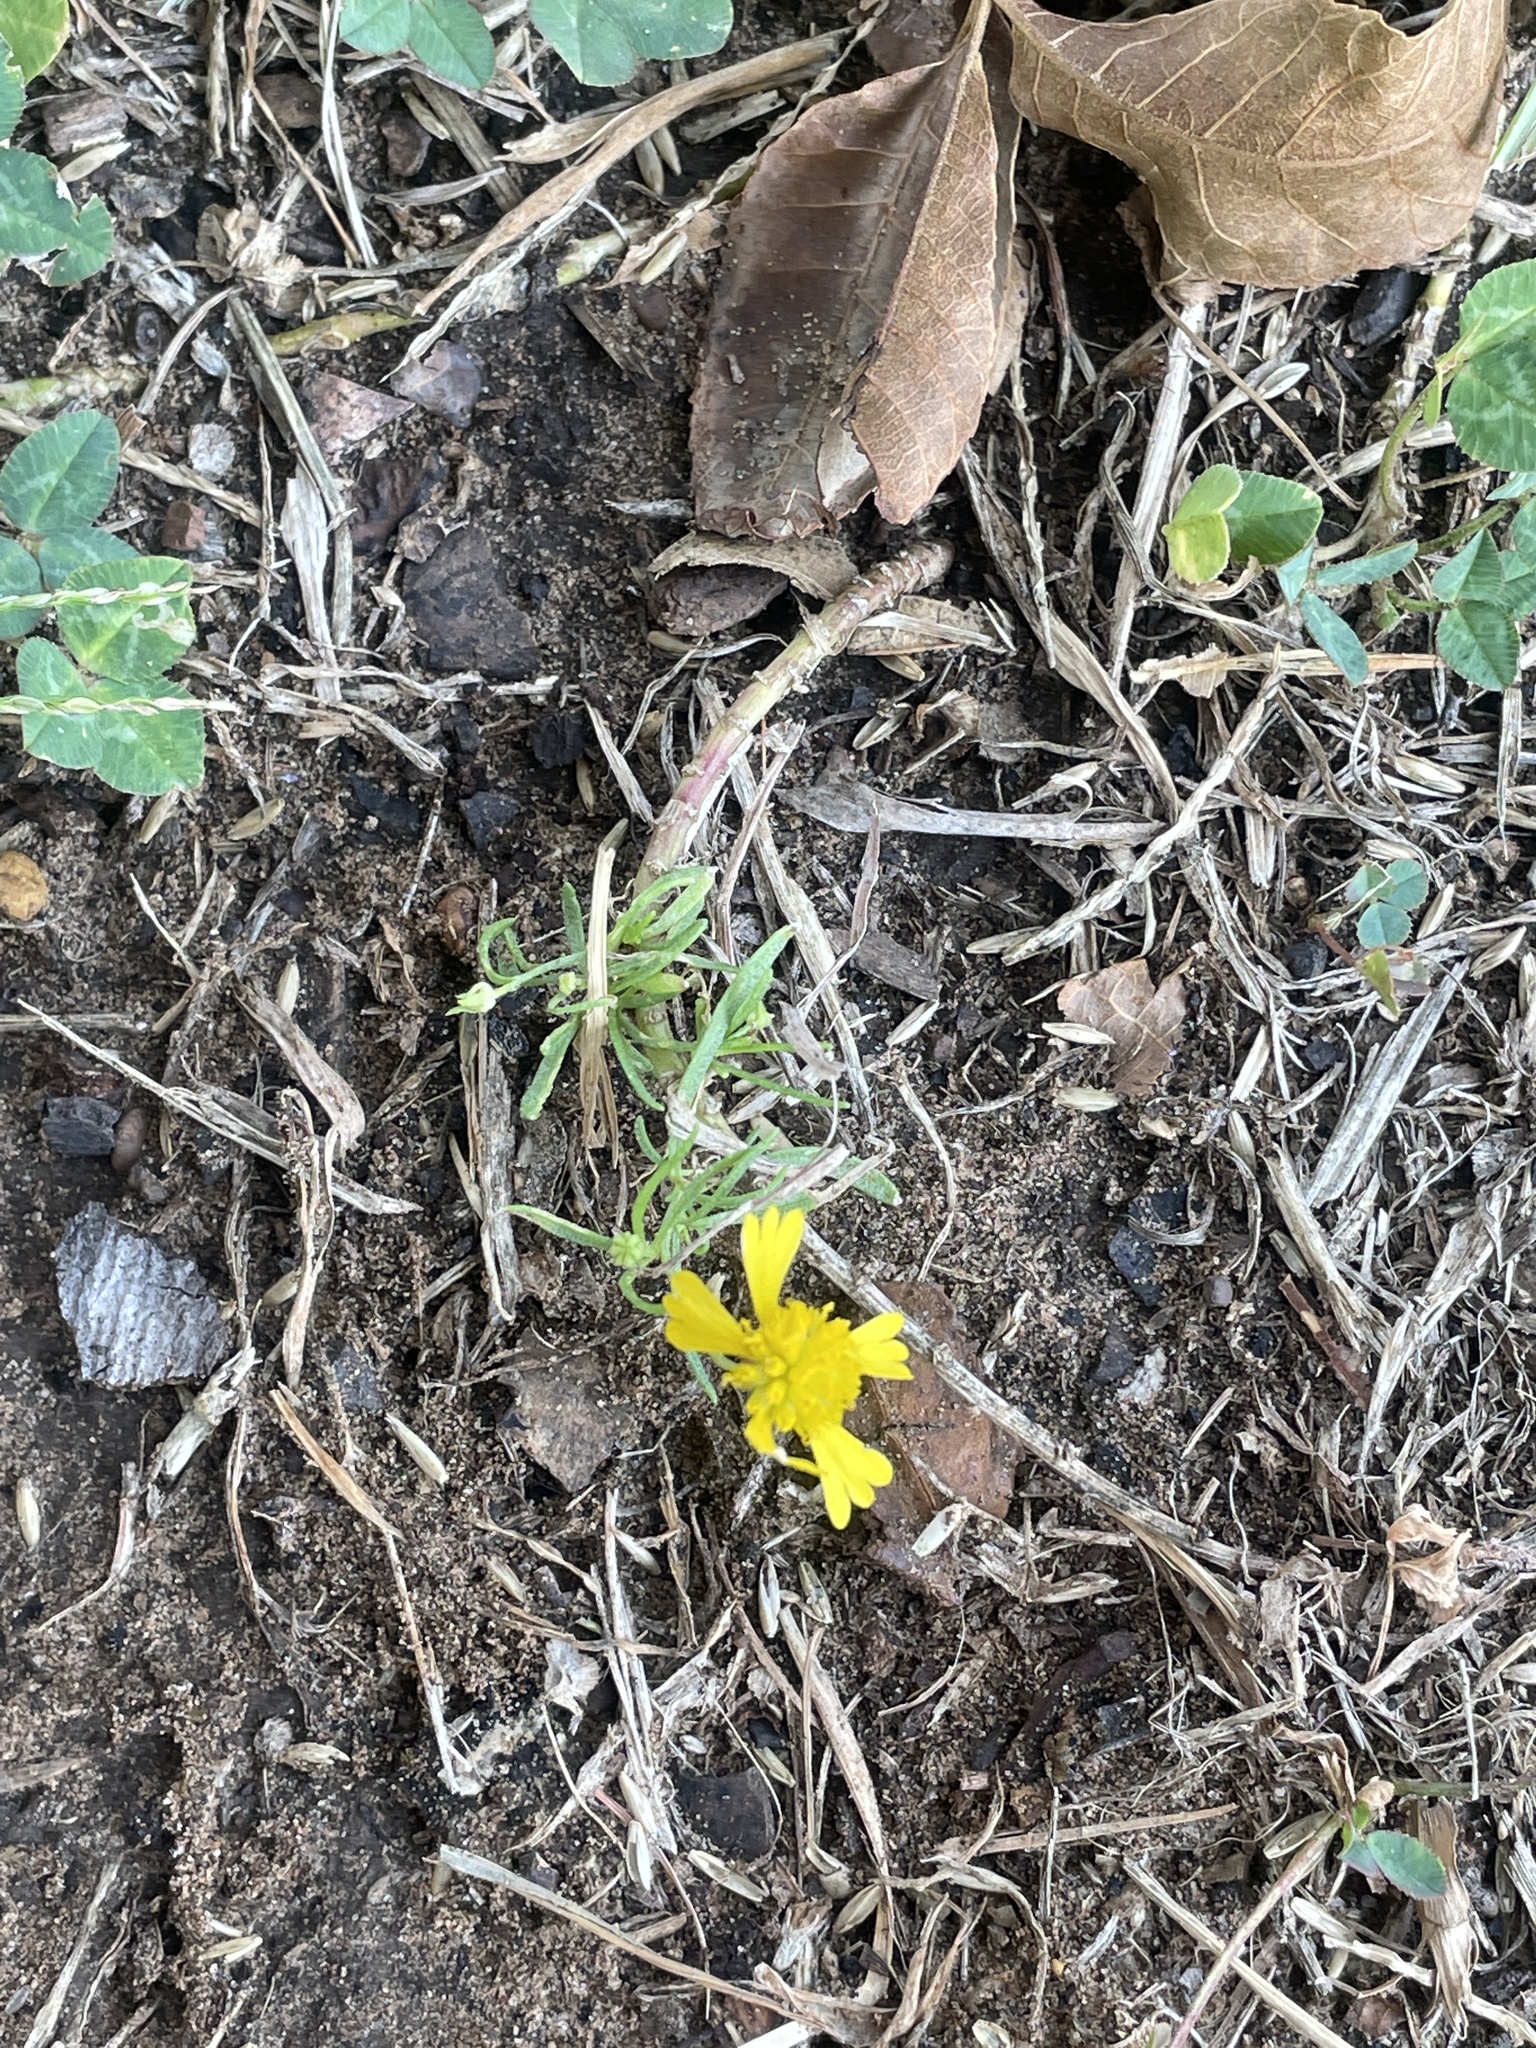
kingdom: Plantae
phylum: Tracheophyta
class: Magnoliopsida
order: Asterales
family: Asteraceae
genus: Helenium
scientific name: Helenium amarum
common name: Bitter sneezeweed
